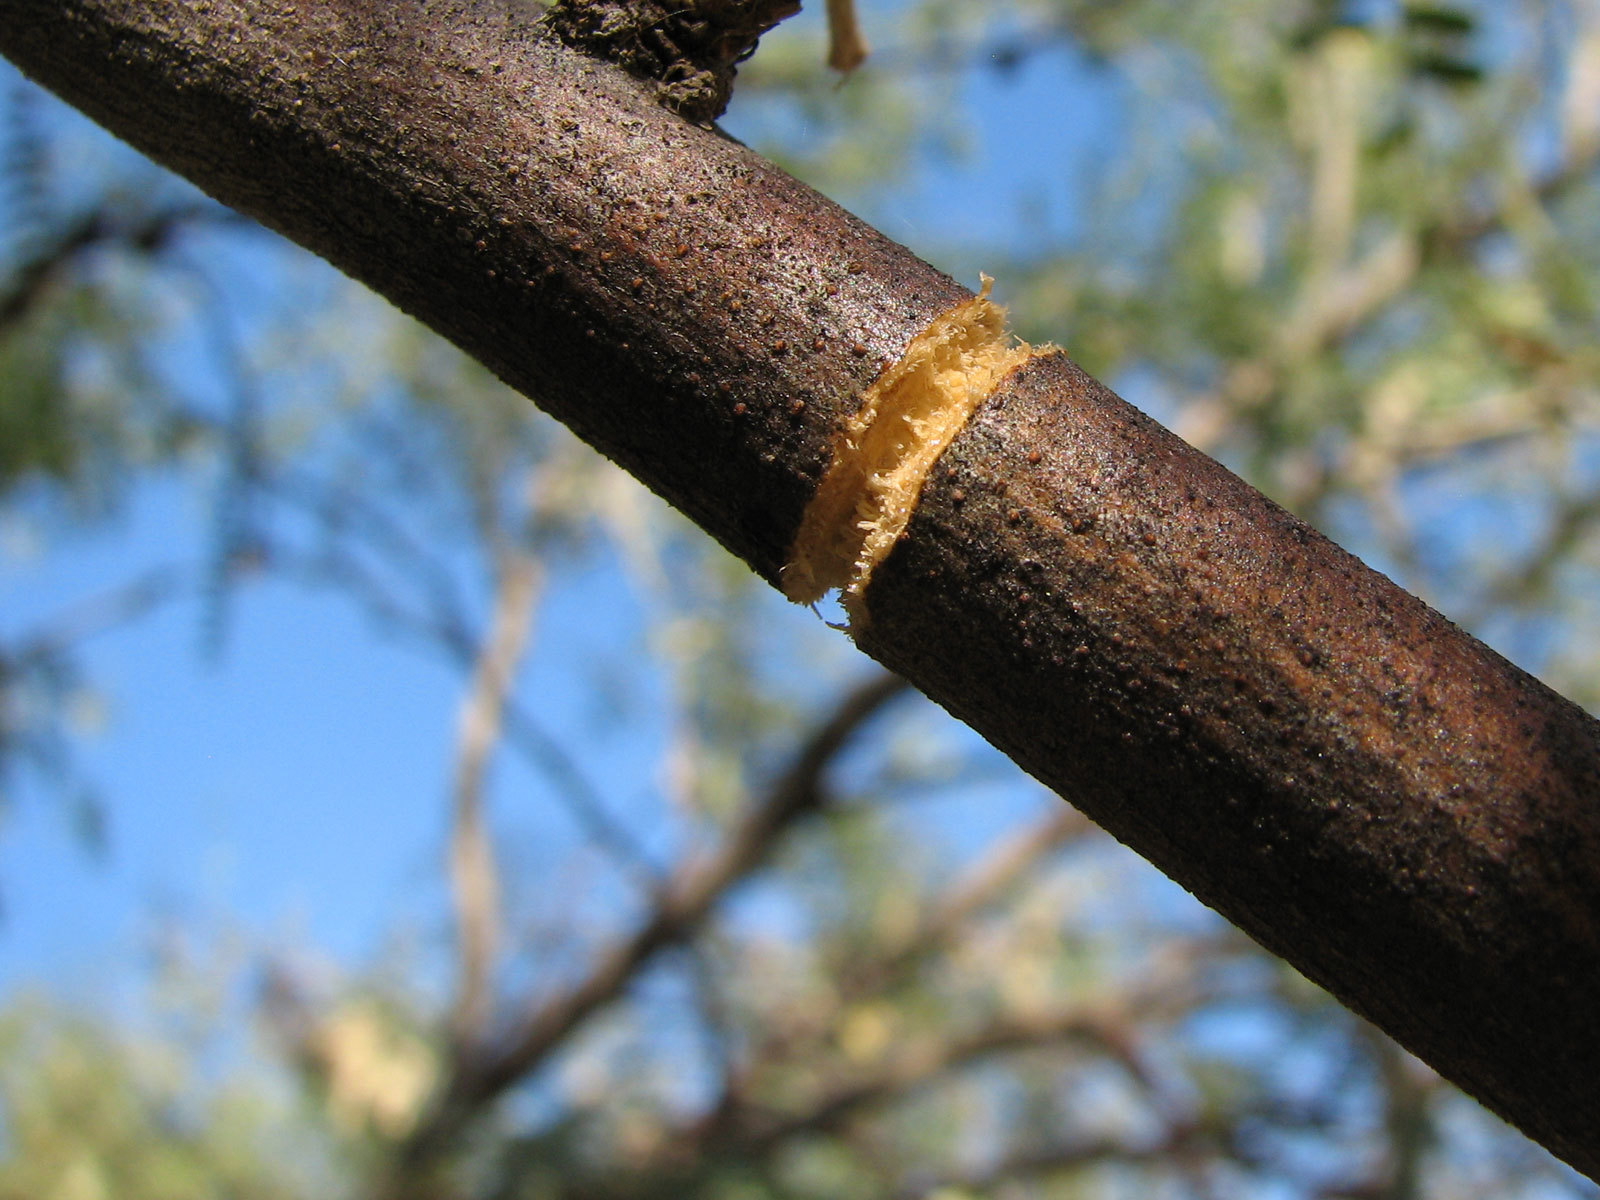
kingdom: Animalia
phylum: Arthropoda
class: Insecta
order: Coleoptera
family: Cerambycidae
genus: Oncideres
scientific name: Oncideres rhodosticta
